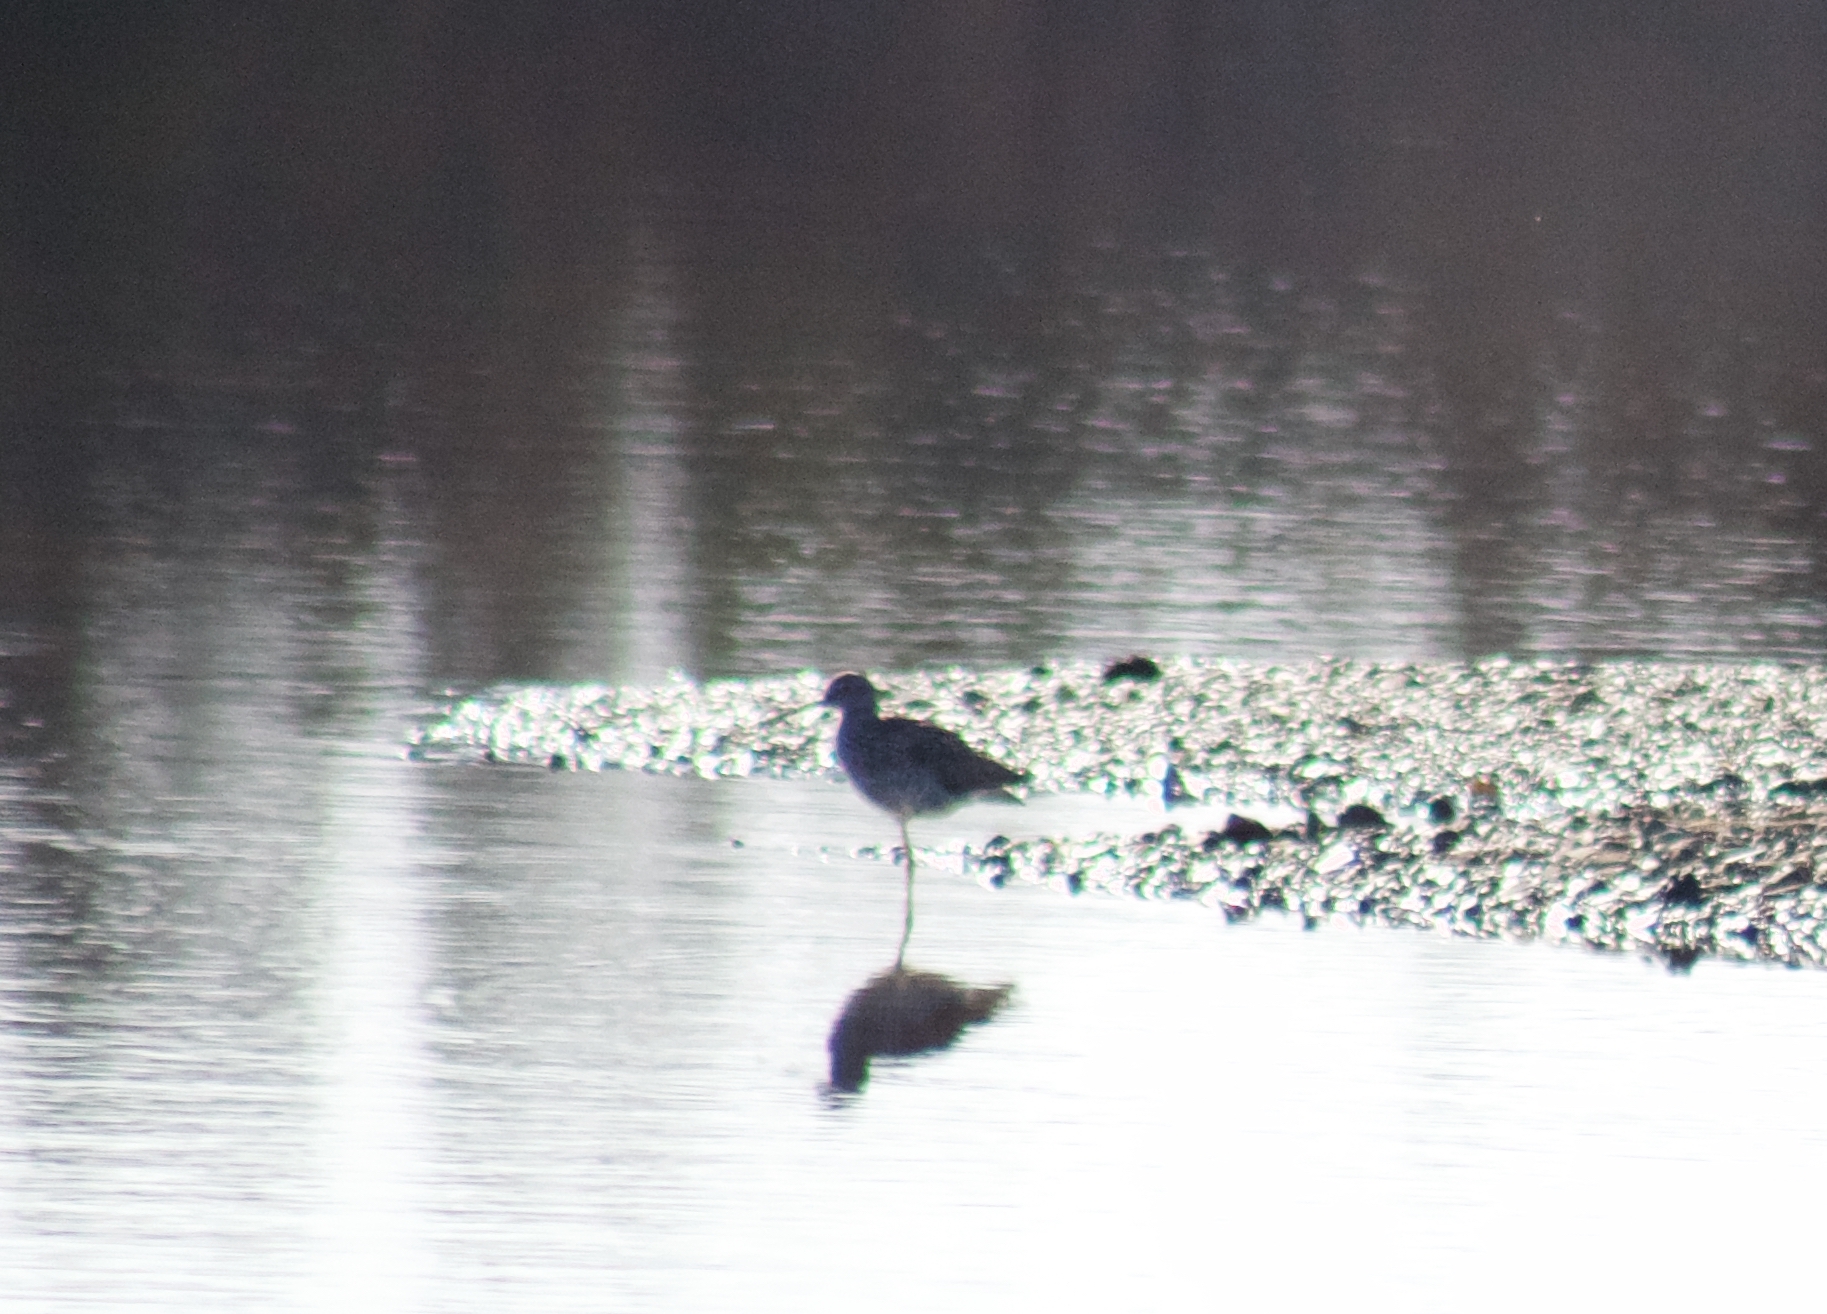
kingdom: Animalia
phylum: Chordata
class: Aves
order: Charadriiformes
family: Scolopacidae
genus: Tringa
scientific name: Tringa melanoleuca
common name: Greater yellowlegs
